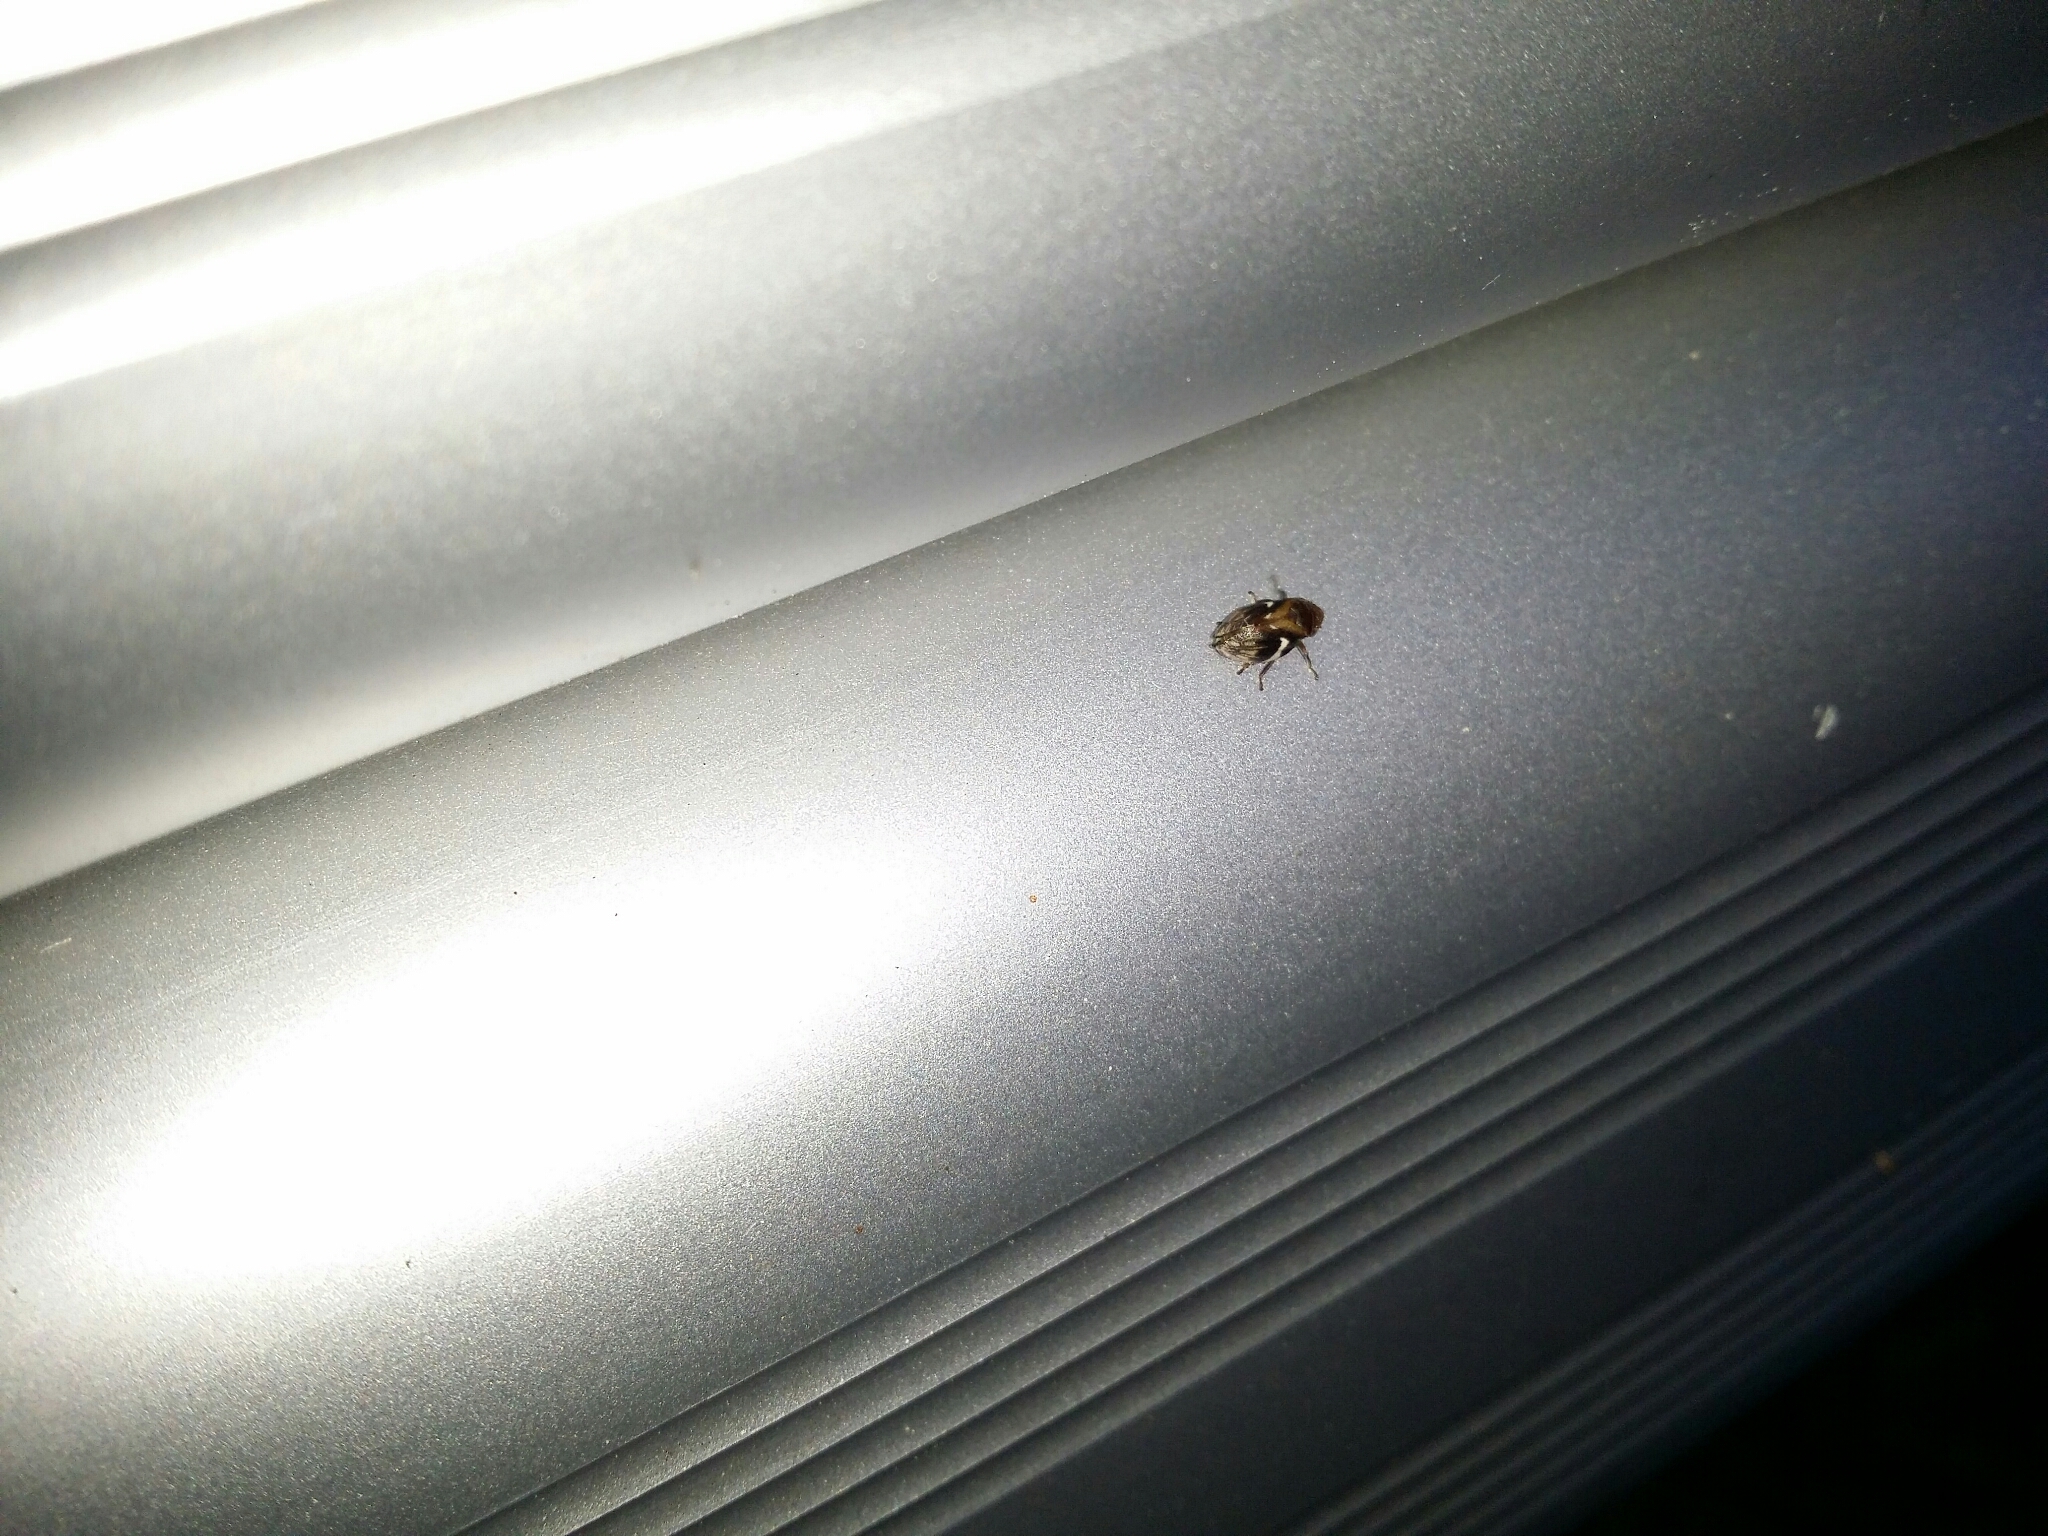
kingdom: Animalia
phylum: Arthropoda
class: Insecta
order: Hemiptera
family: Aphrophoridae
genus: Bathyllus
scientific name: Bathyllus albicinctus
